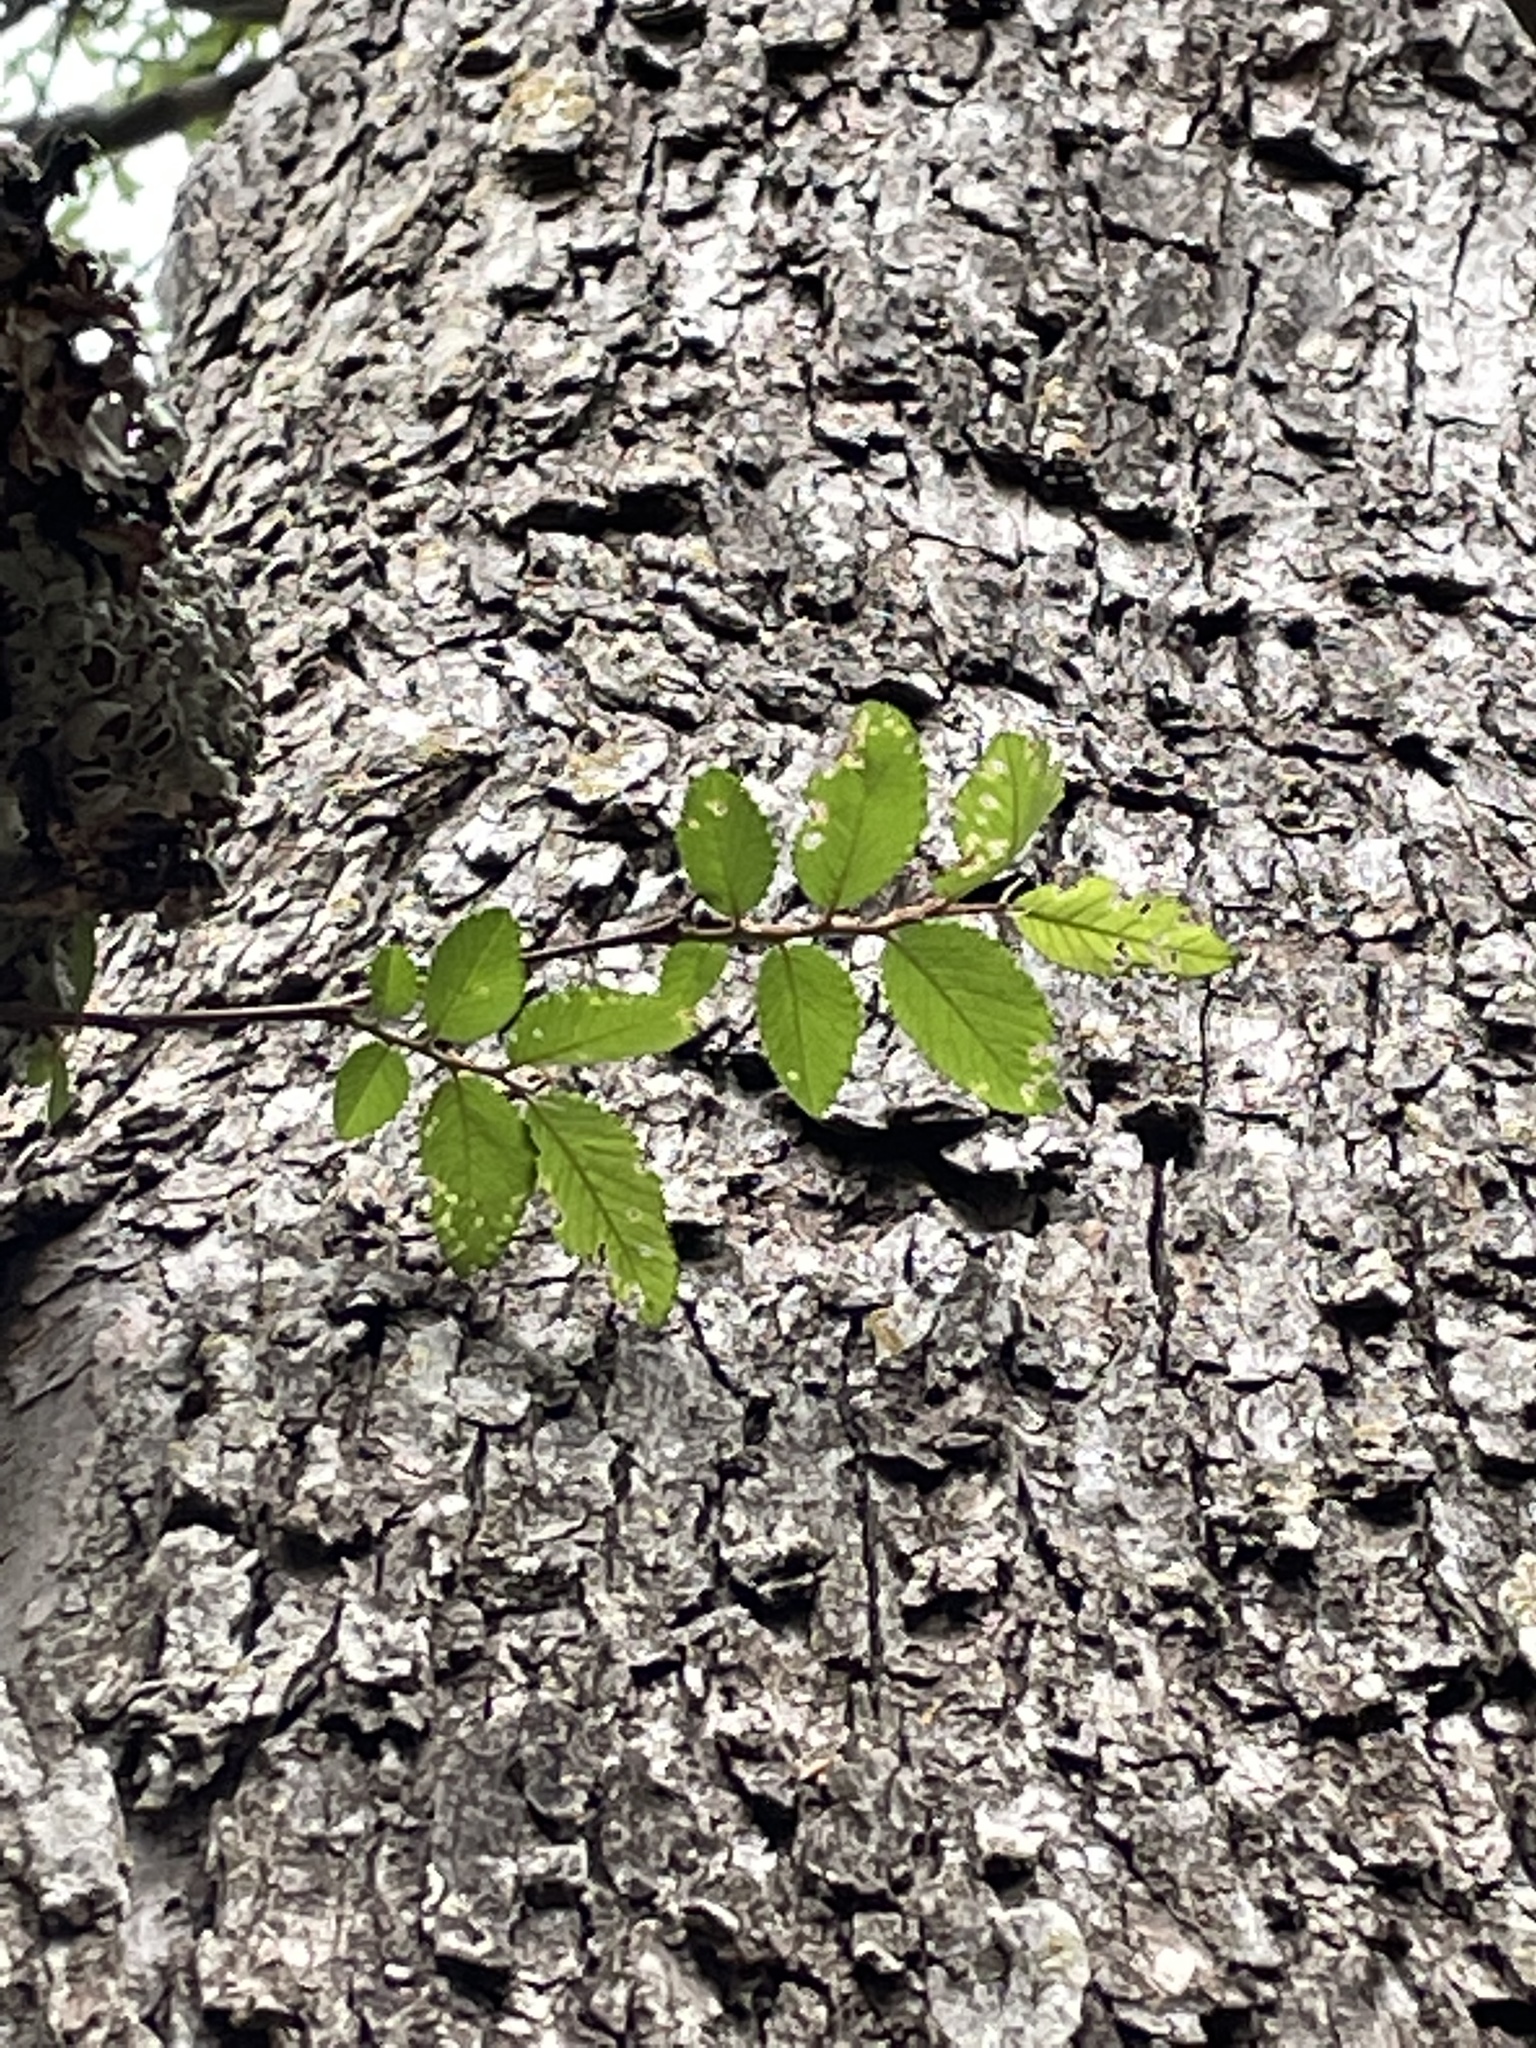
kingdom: Plantae
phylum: Tracheophyta
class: Magnoliopsida
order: Rosales
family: Ulmaceae
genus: Ulmus
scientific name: Ulmus crassifolia
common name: Basket elm
